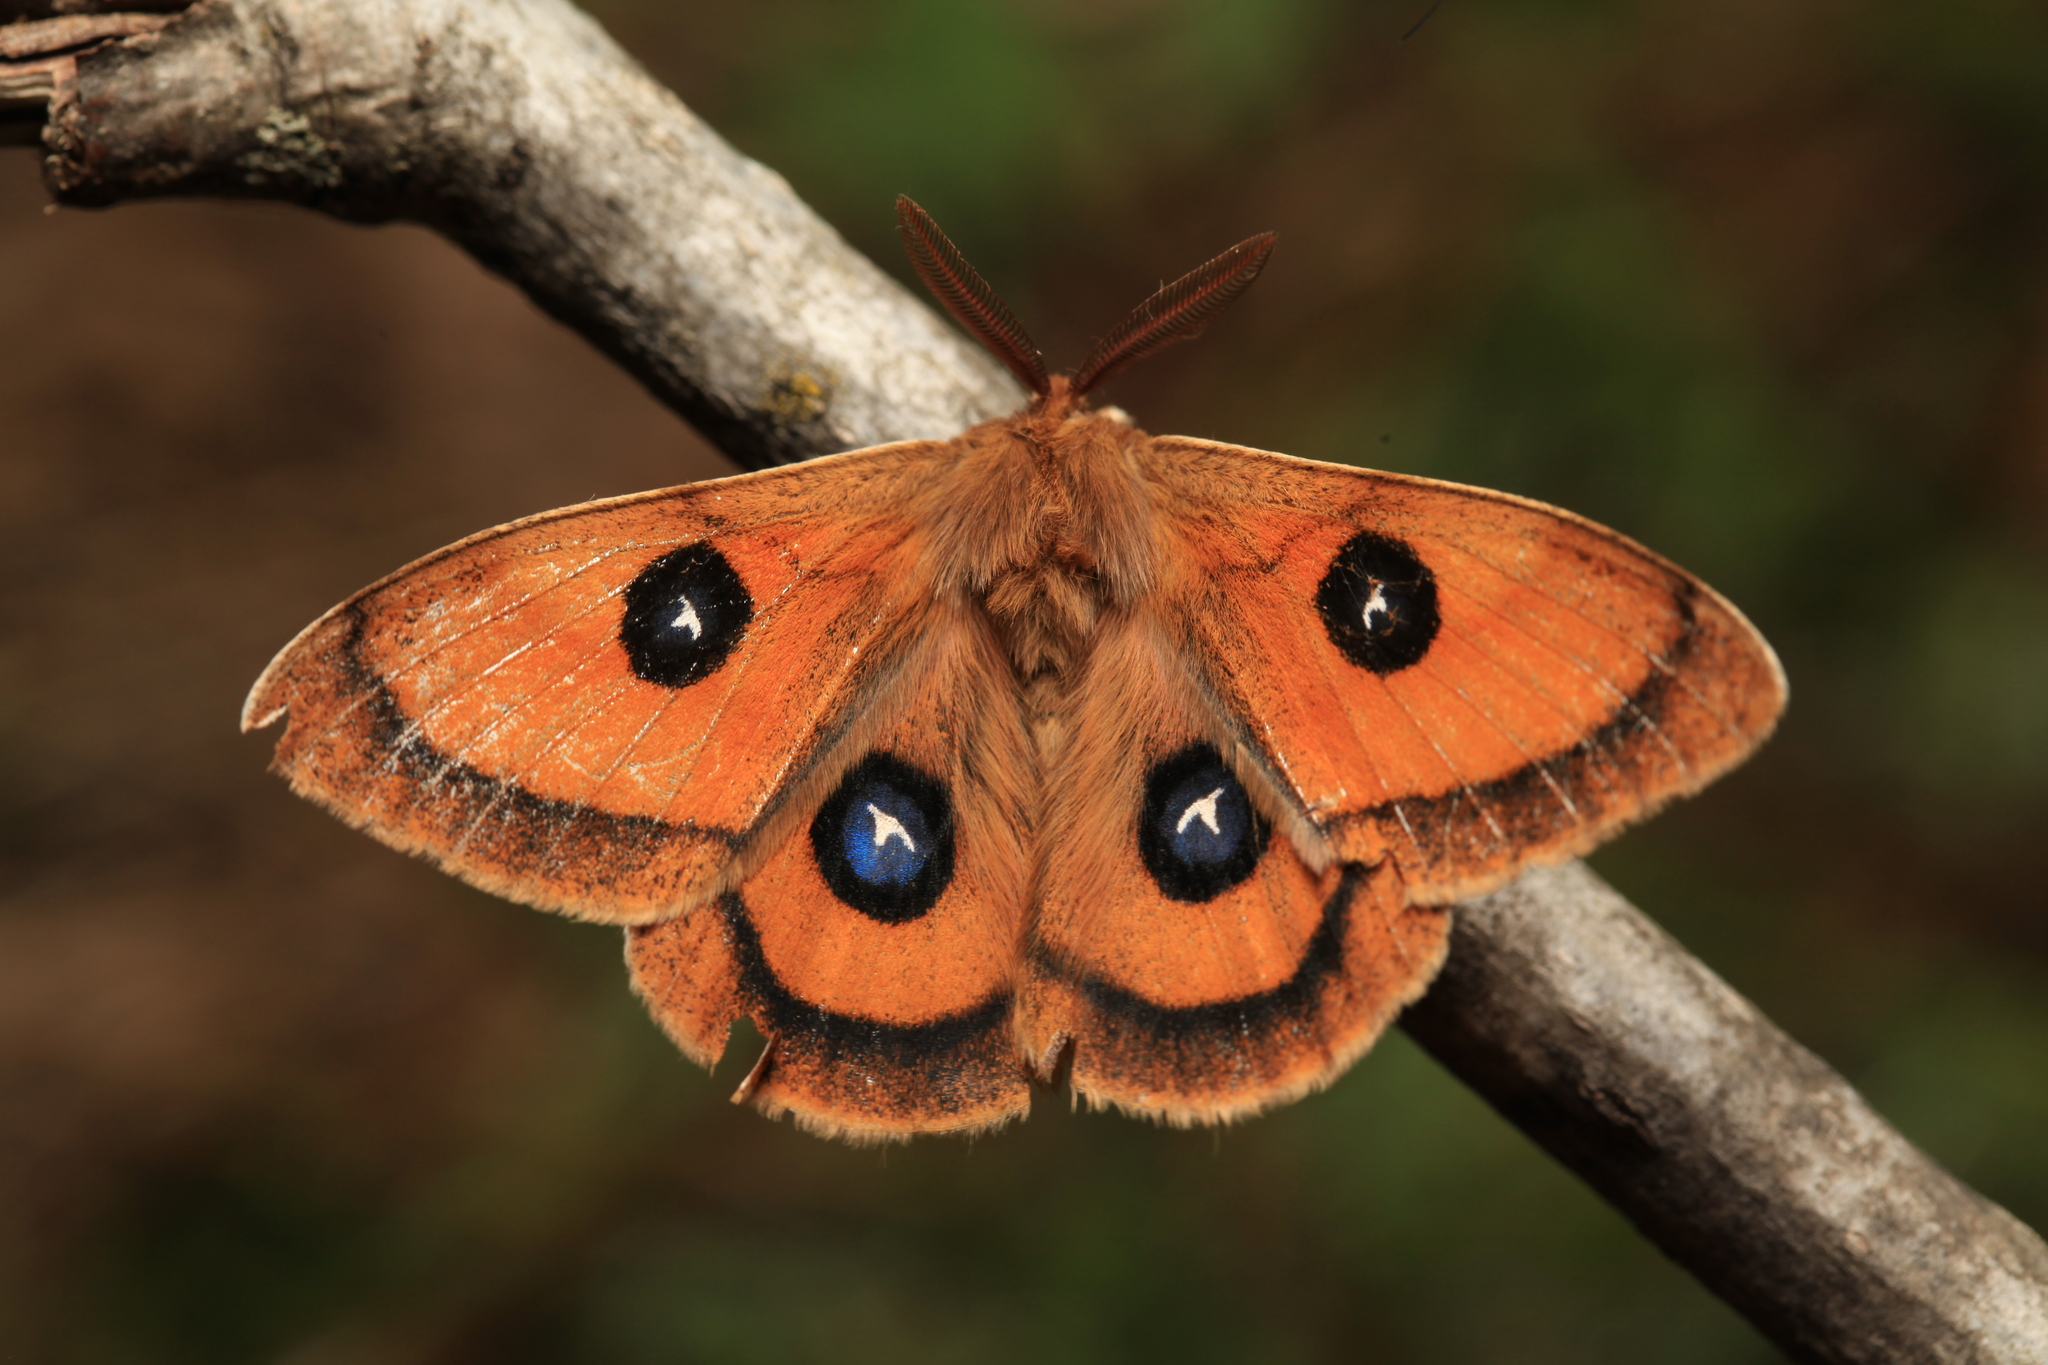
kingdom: Animalia
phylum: Arthropoda
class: Insecta
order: Lepidoptera
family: Saturniidae
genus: Aglia
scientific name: Aglia tau
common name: Tau emperor
